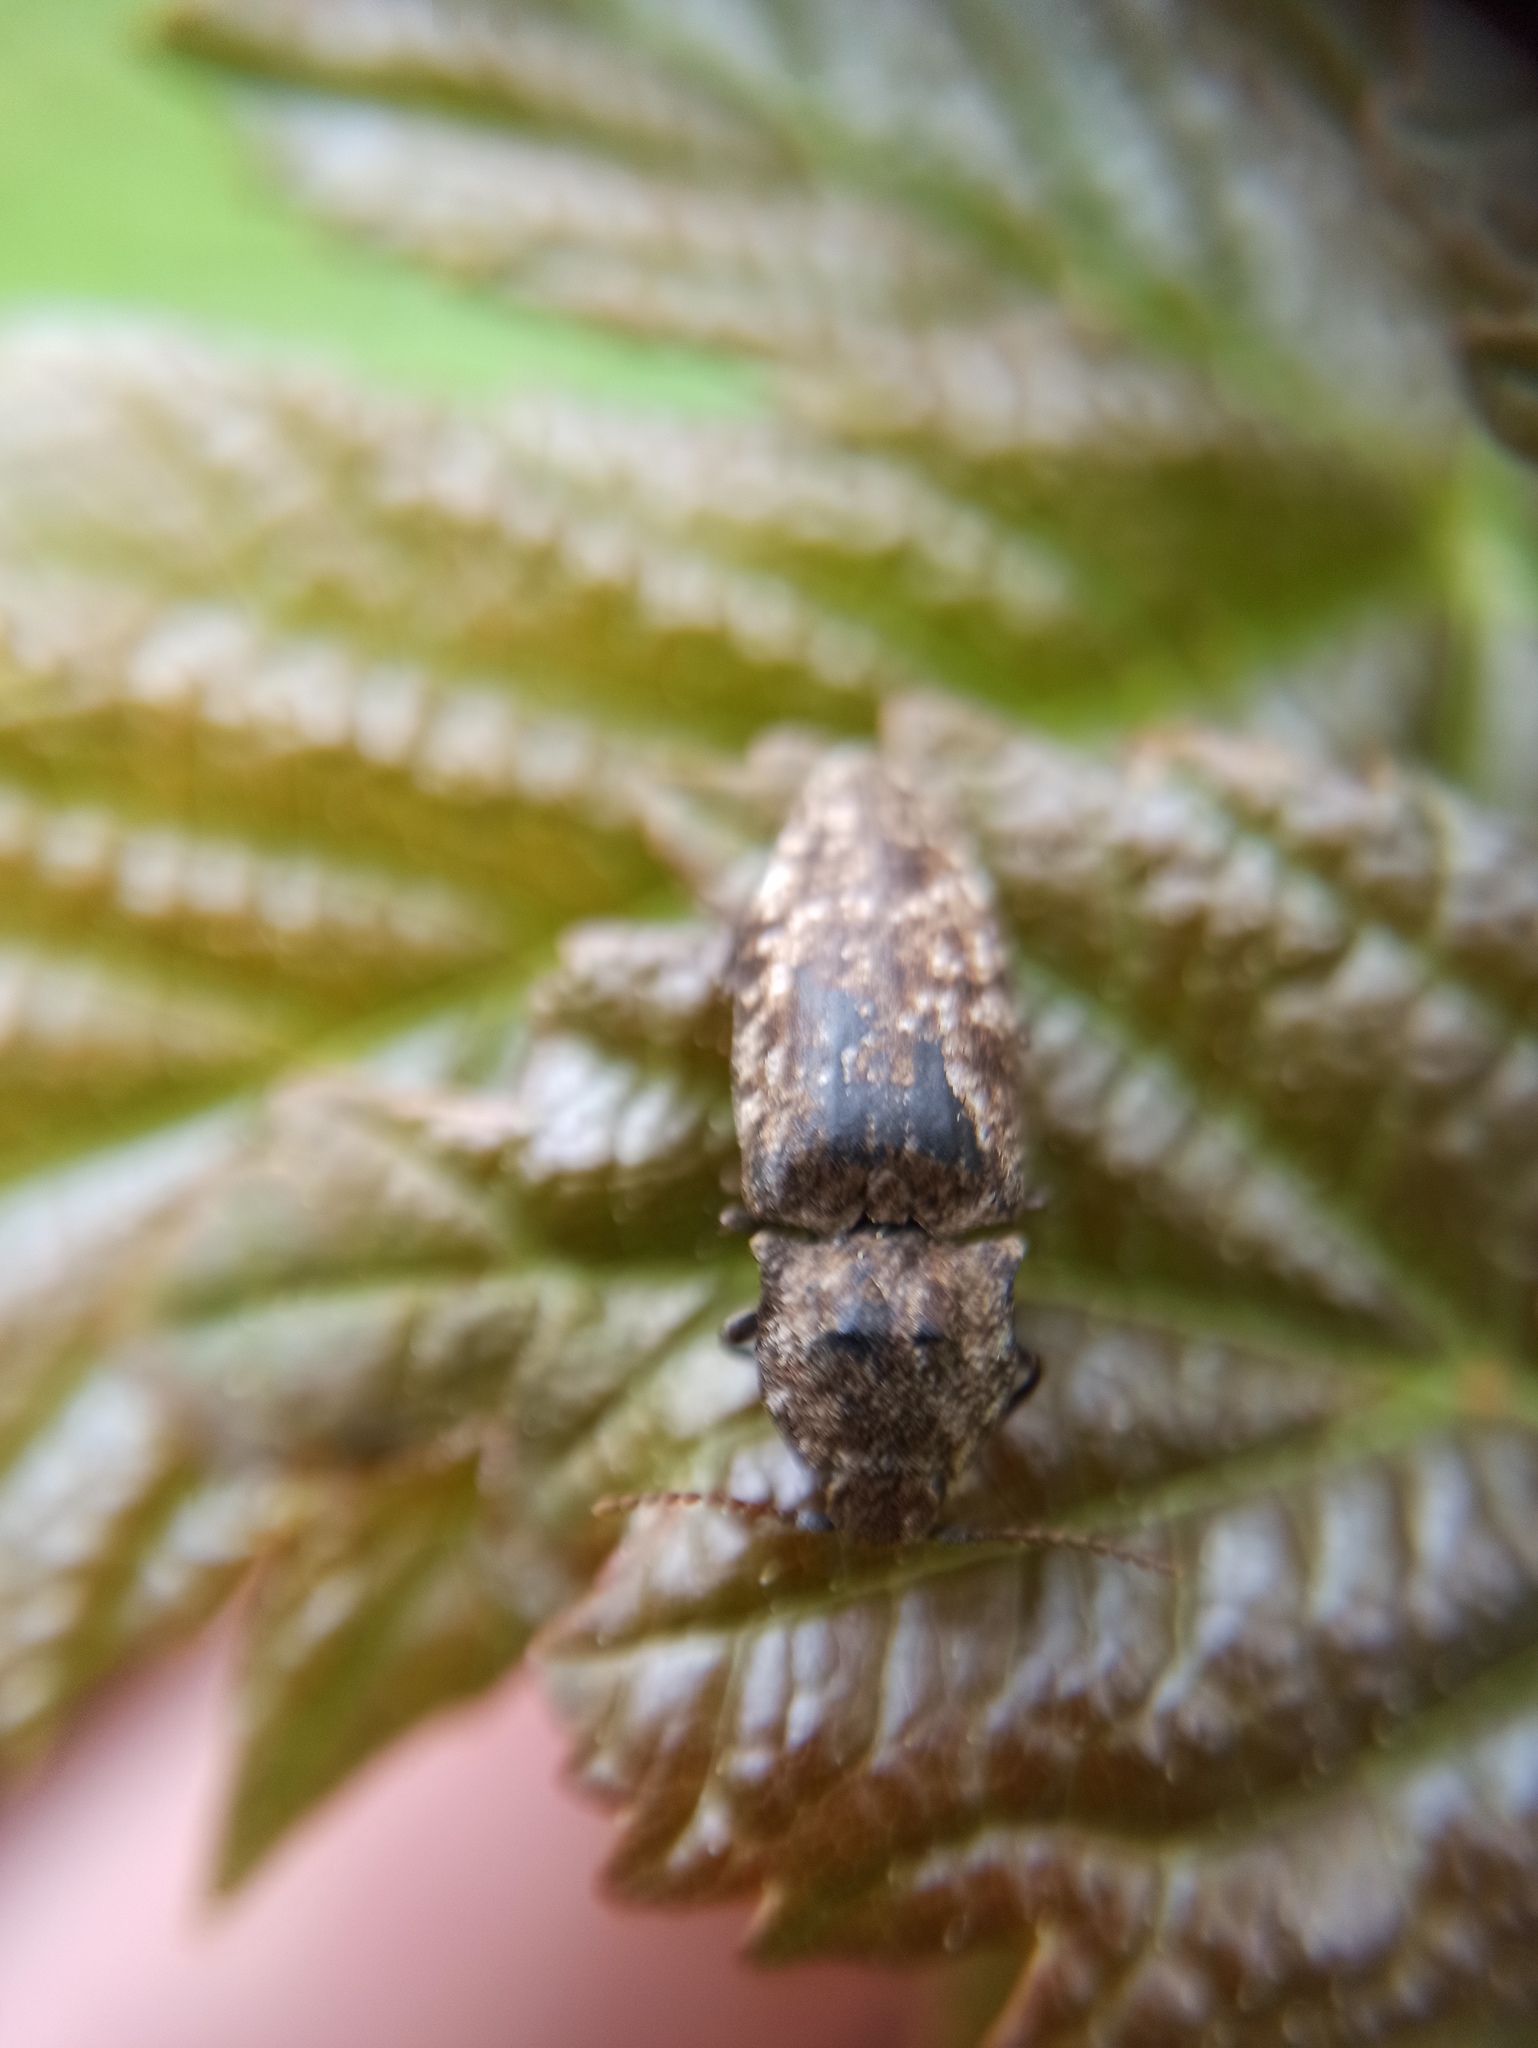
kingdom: Animalia
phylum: Arthropoda
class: Insecta
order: Coleoptera
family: Elateridae
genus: Agrypnus
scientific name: Agrypnus murinus
